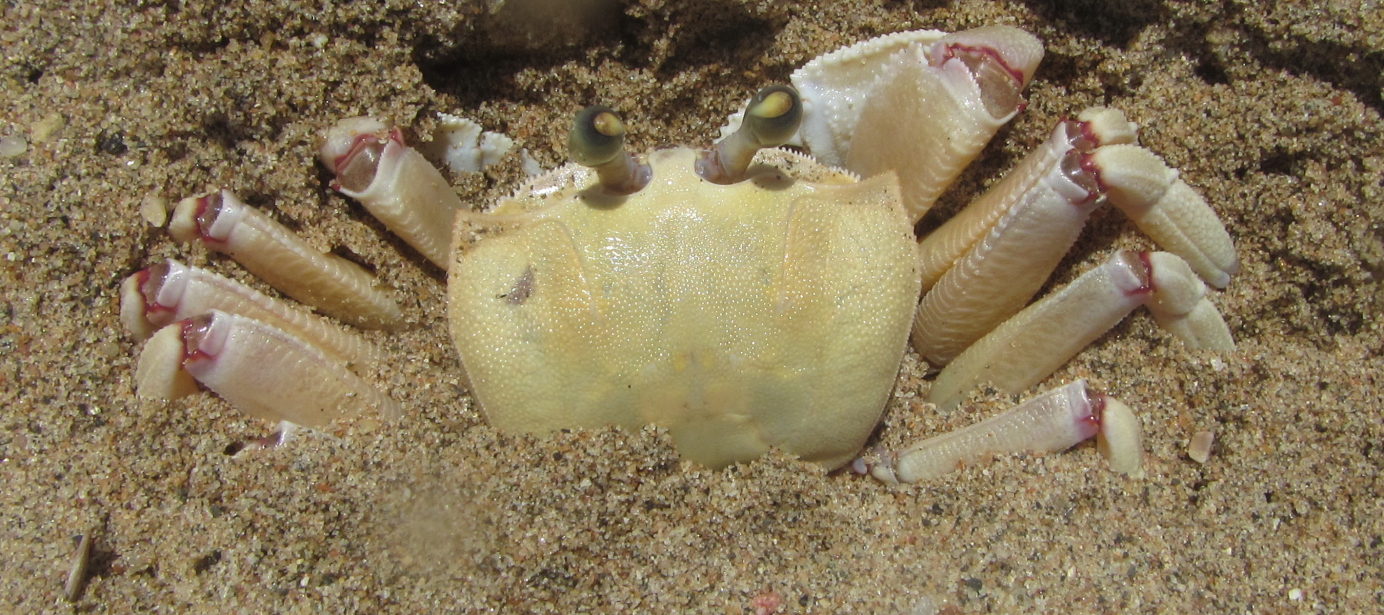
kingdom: Animalia
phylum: Arthropoda
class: Malacostraca
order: Decapoda
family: Ocypodidae
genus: Ocypode
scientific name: Ocypode ryderi
